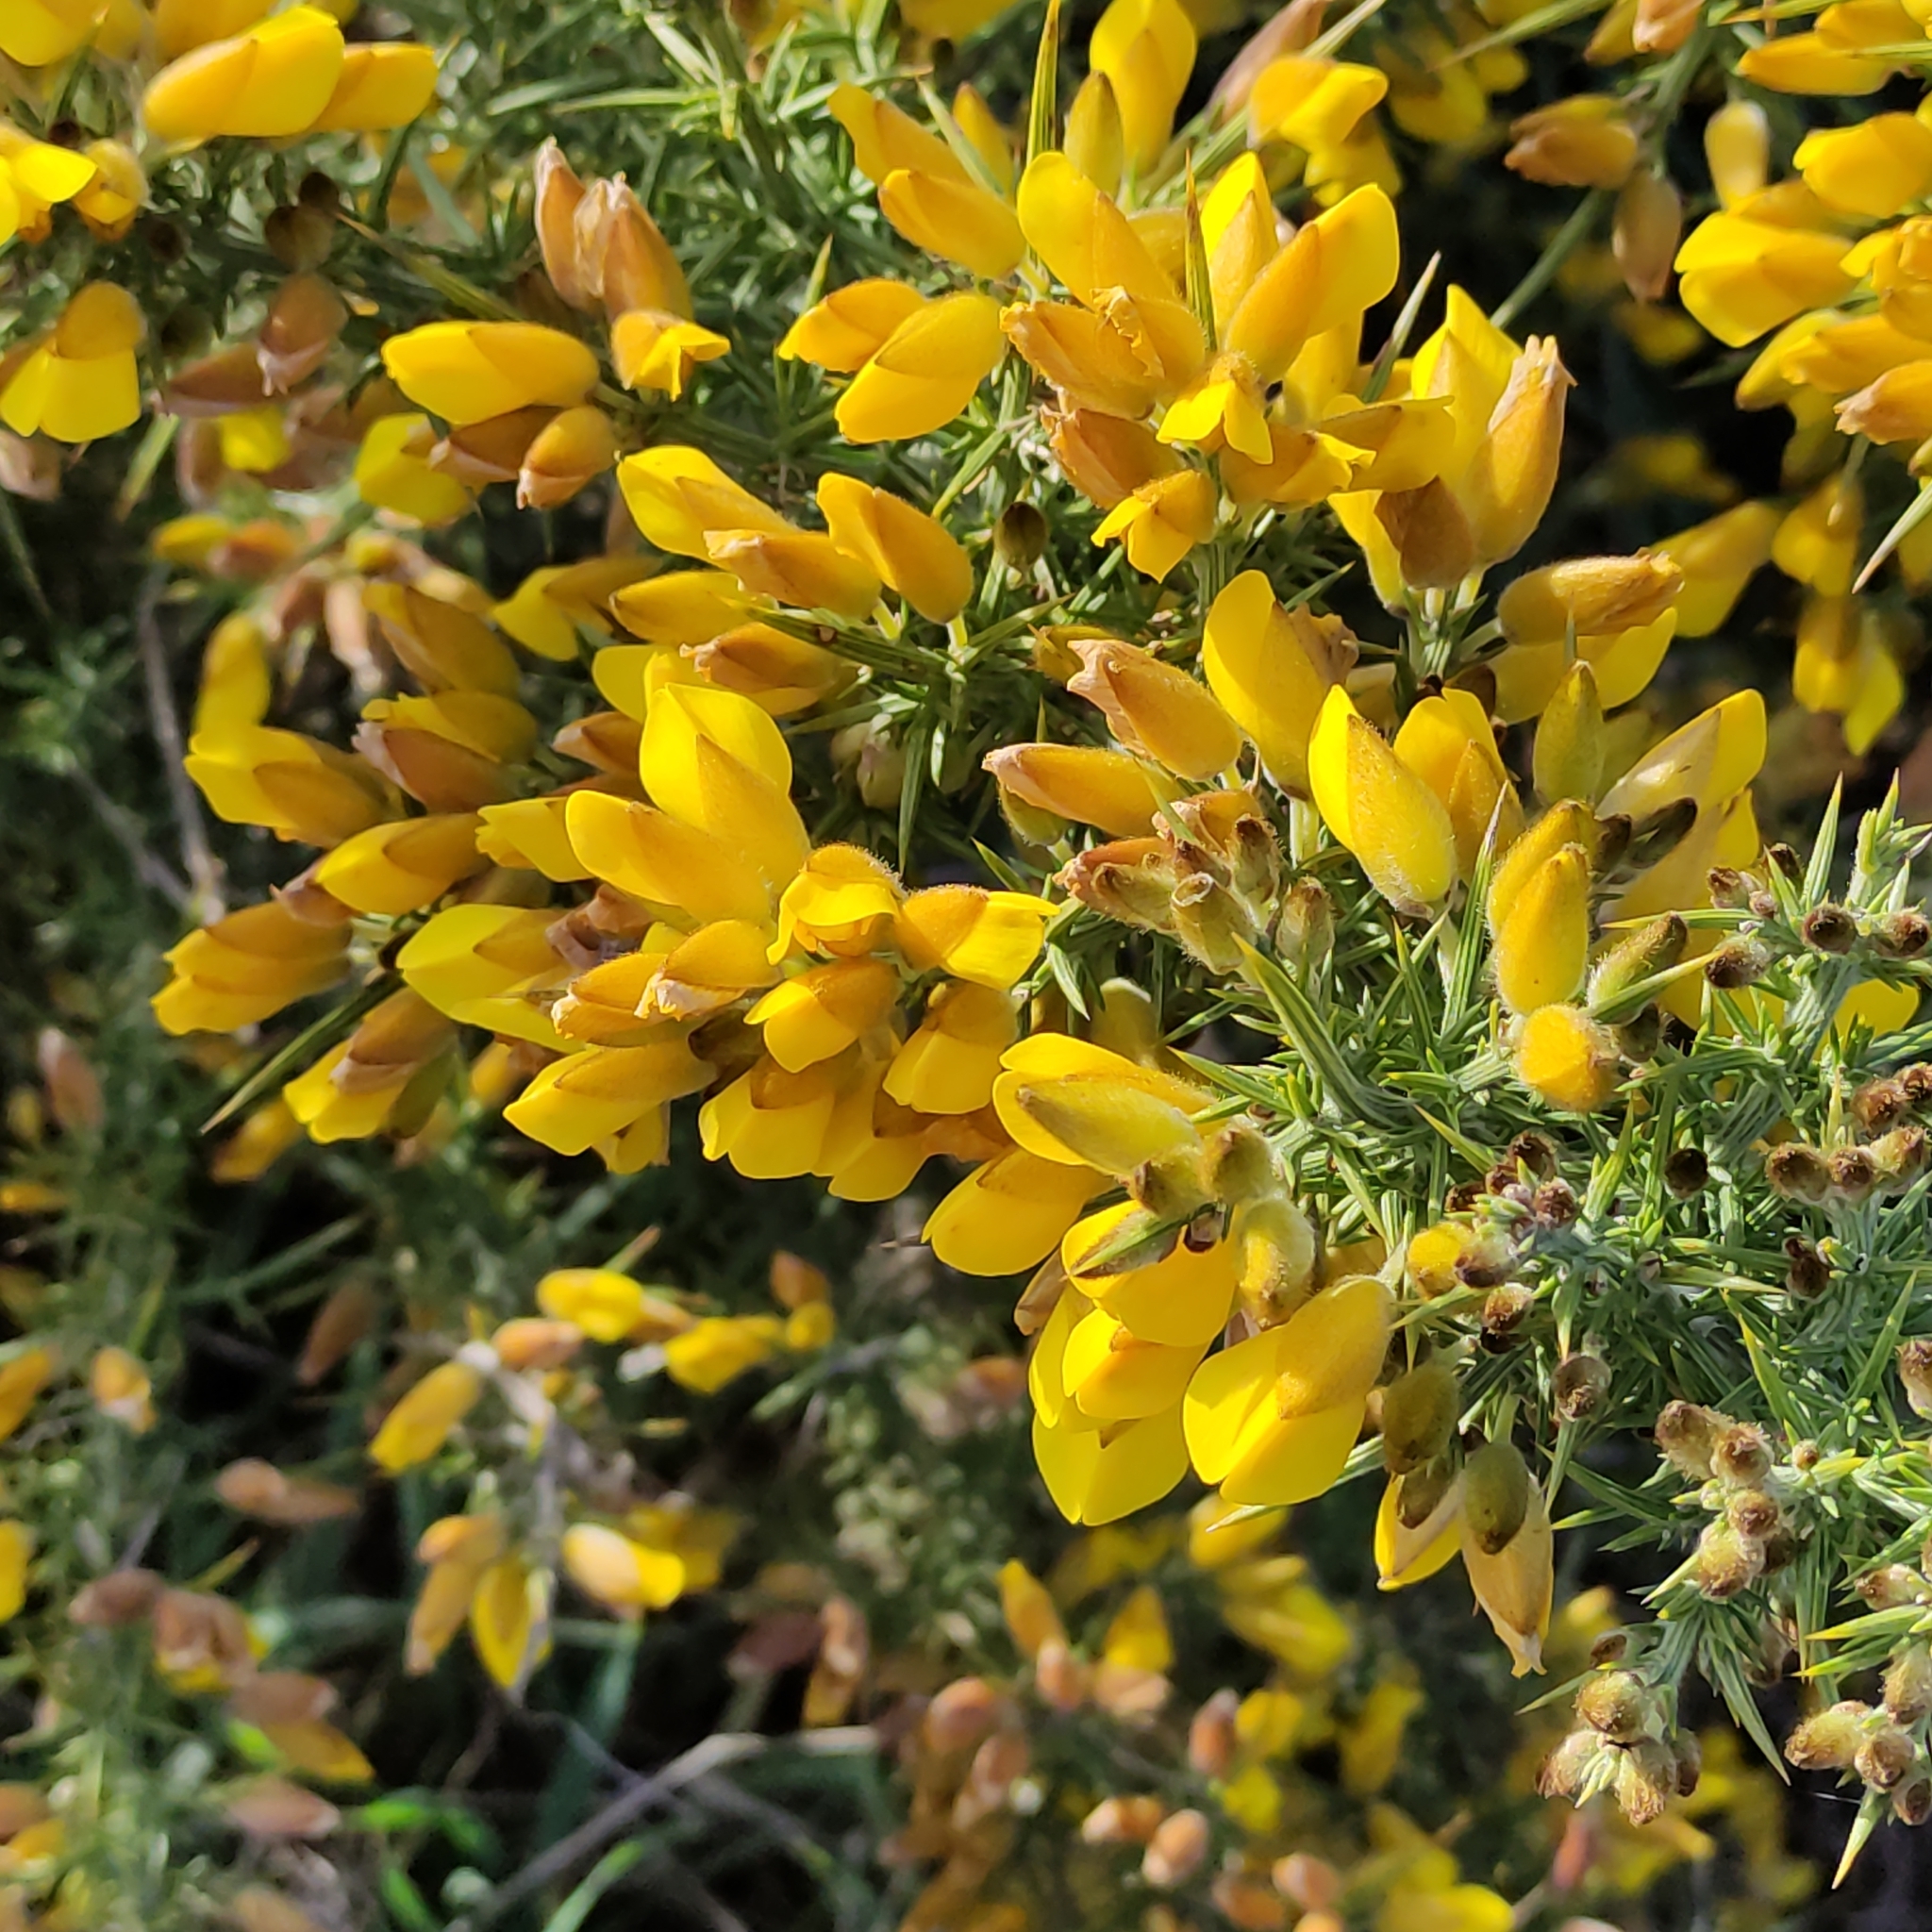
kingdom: Plantae
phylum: Tracheophyta
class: Magnoliopsida
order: Fabales
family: Fabaceae
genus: Ulex
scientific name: Ulex europaeus
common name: Common gorse
